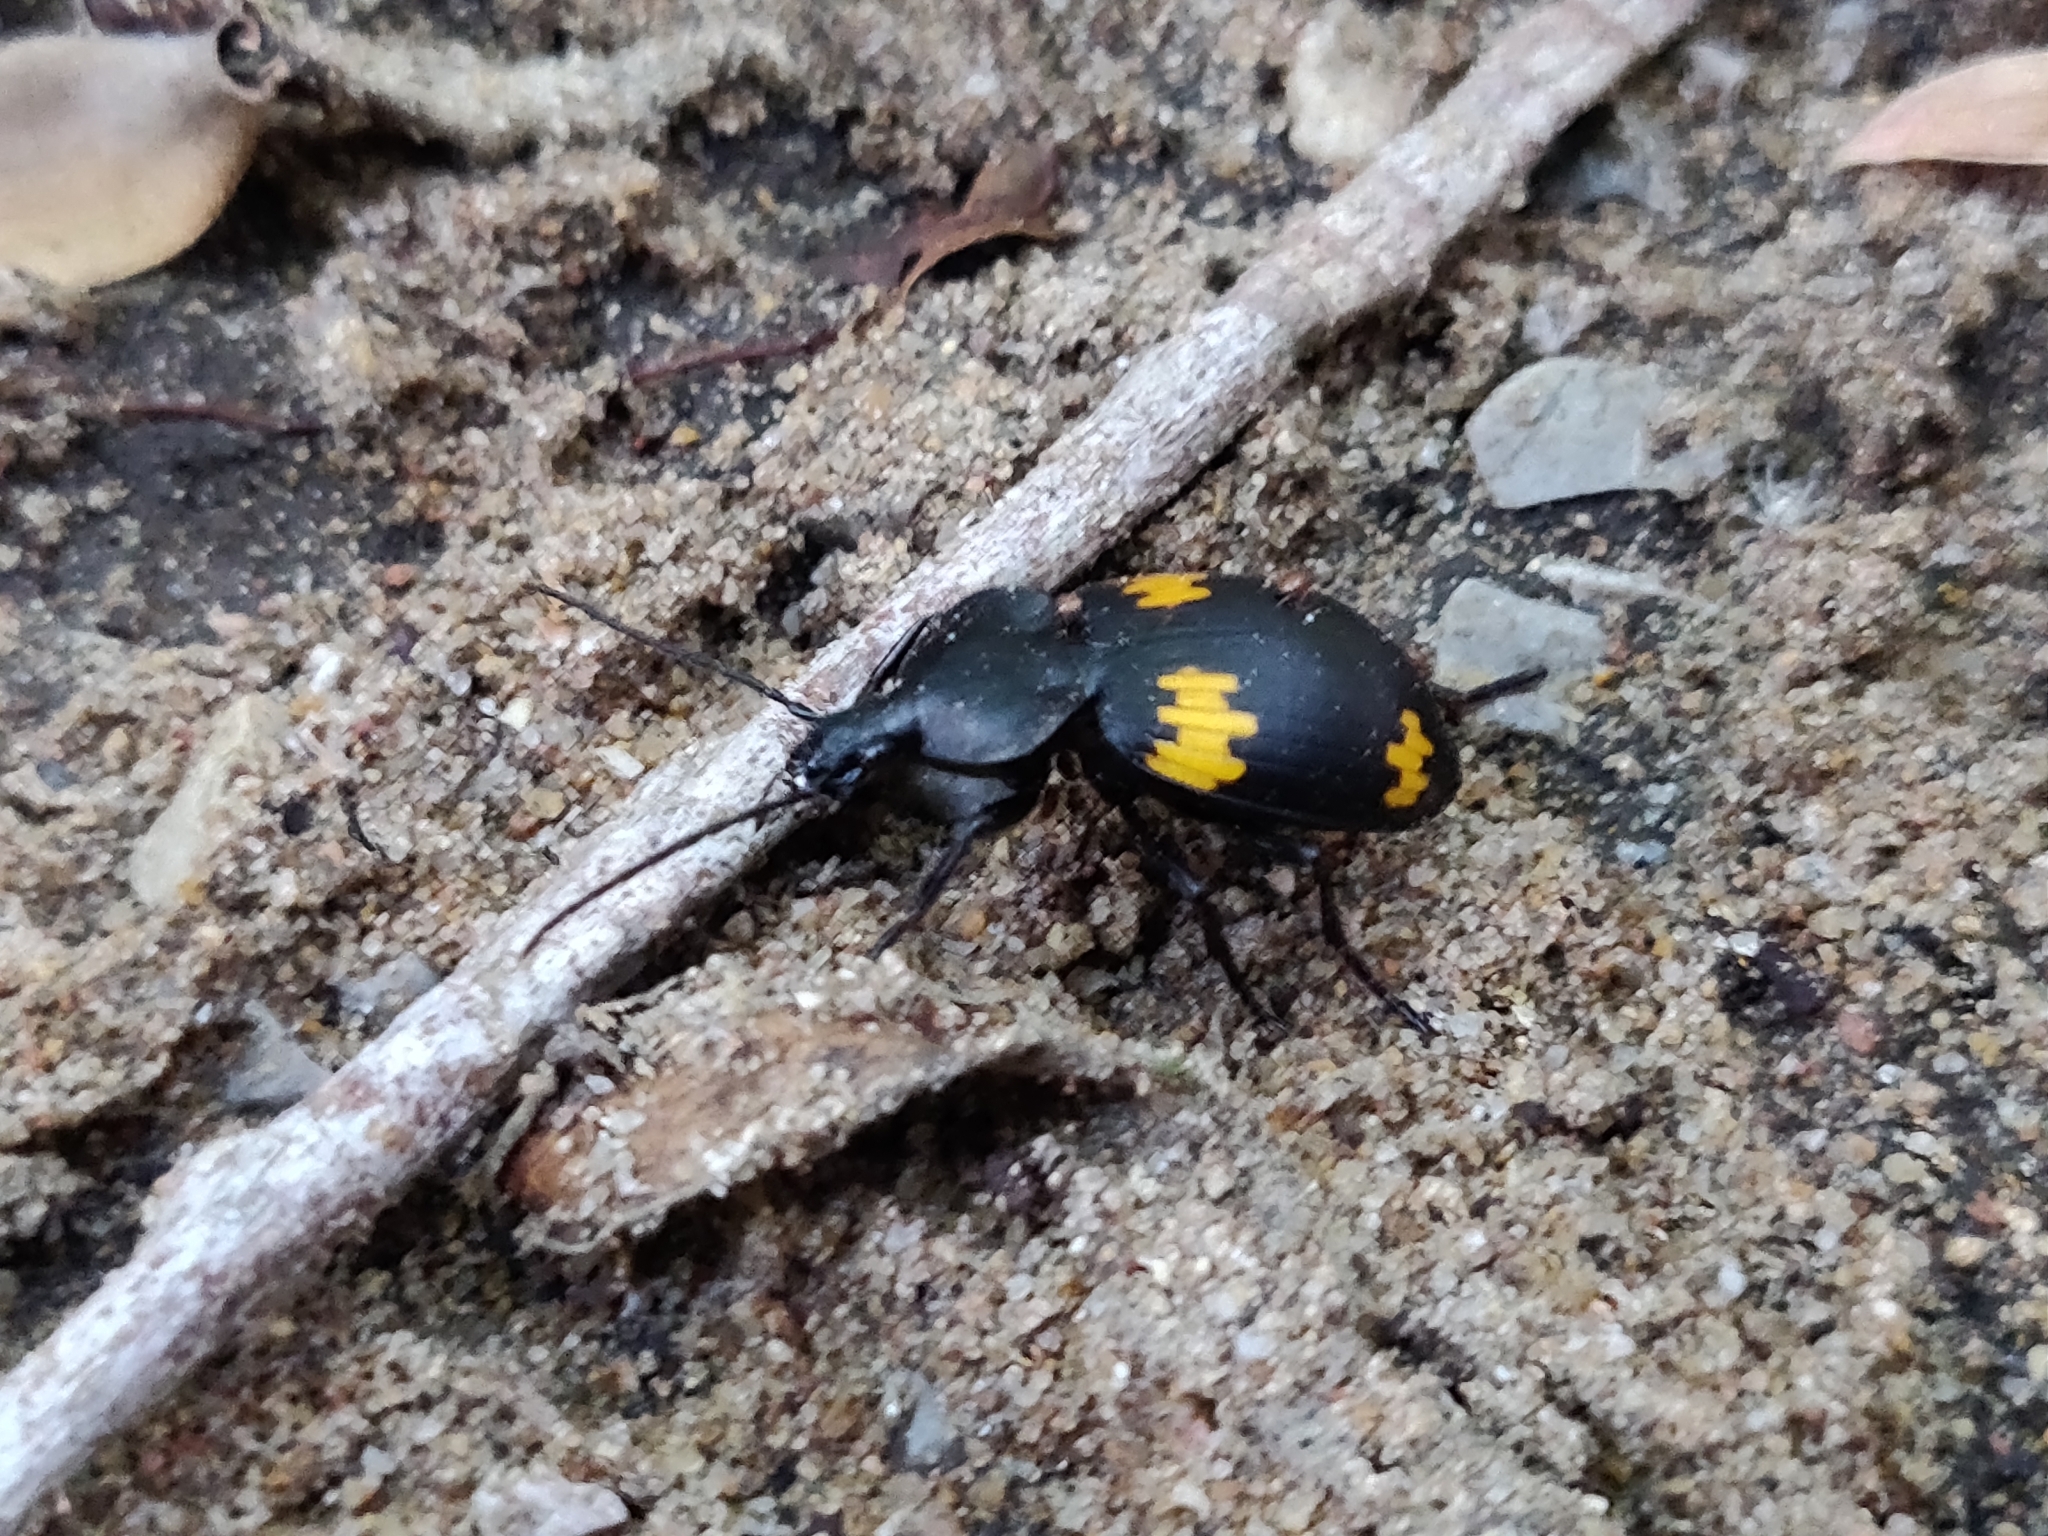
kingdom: Animalia
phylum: Arthropoda
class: Insecta
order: Coleoptera
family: Carabidae
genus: Craspedophorus
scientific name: Craspedophorus sublaevis
